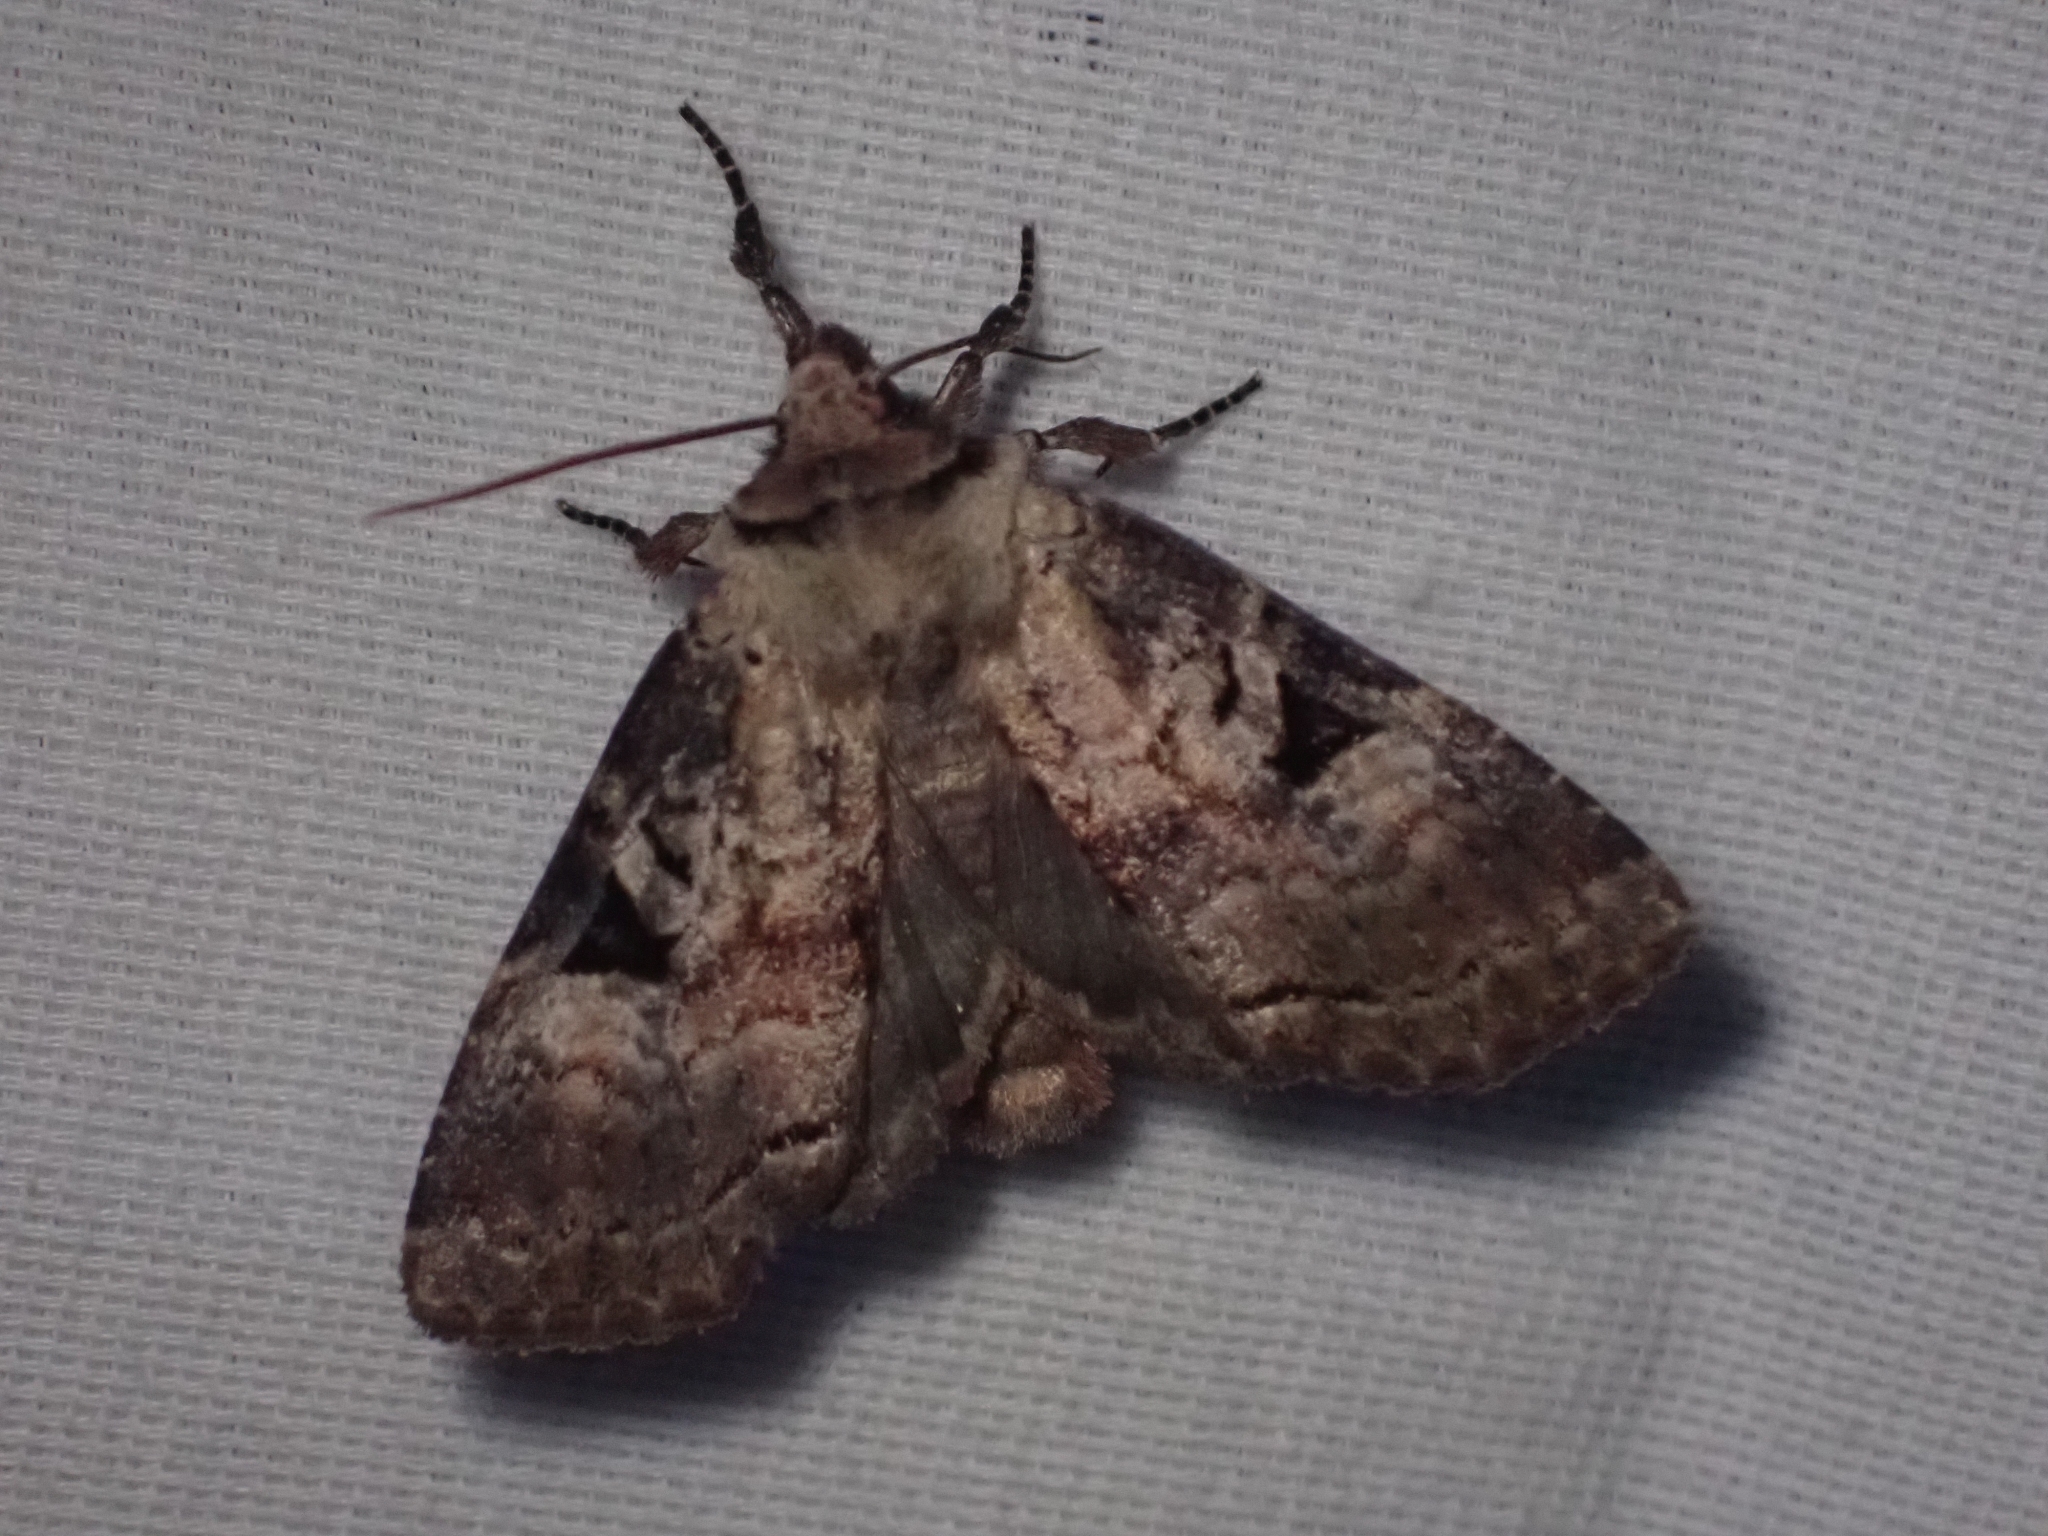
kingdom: Animalia
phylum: Arthropoda
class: Insecta
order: Lepidoptera
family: Noctuidae
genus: Hillia
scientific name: Hillia iris
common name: Iris rover moth
